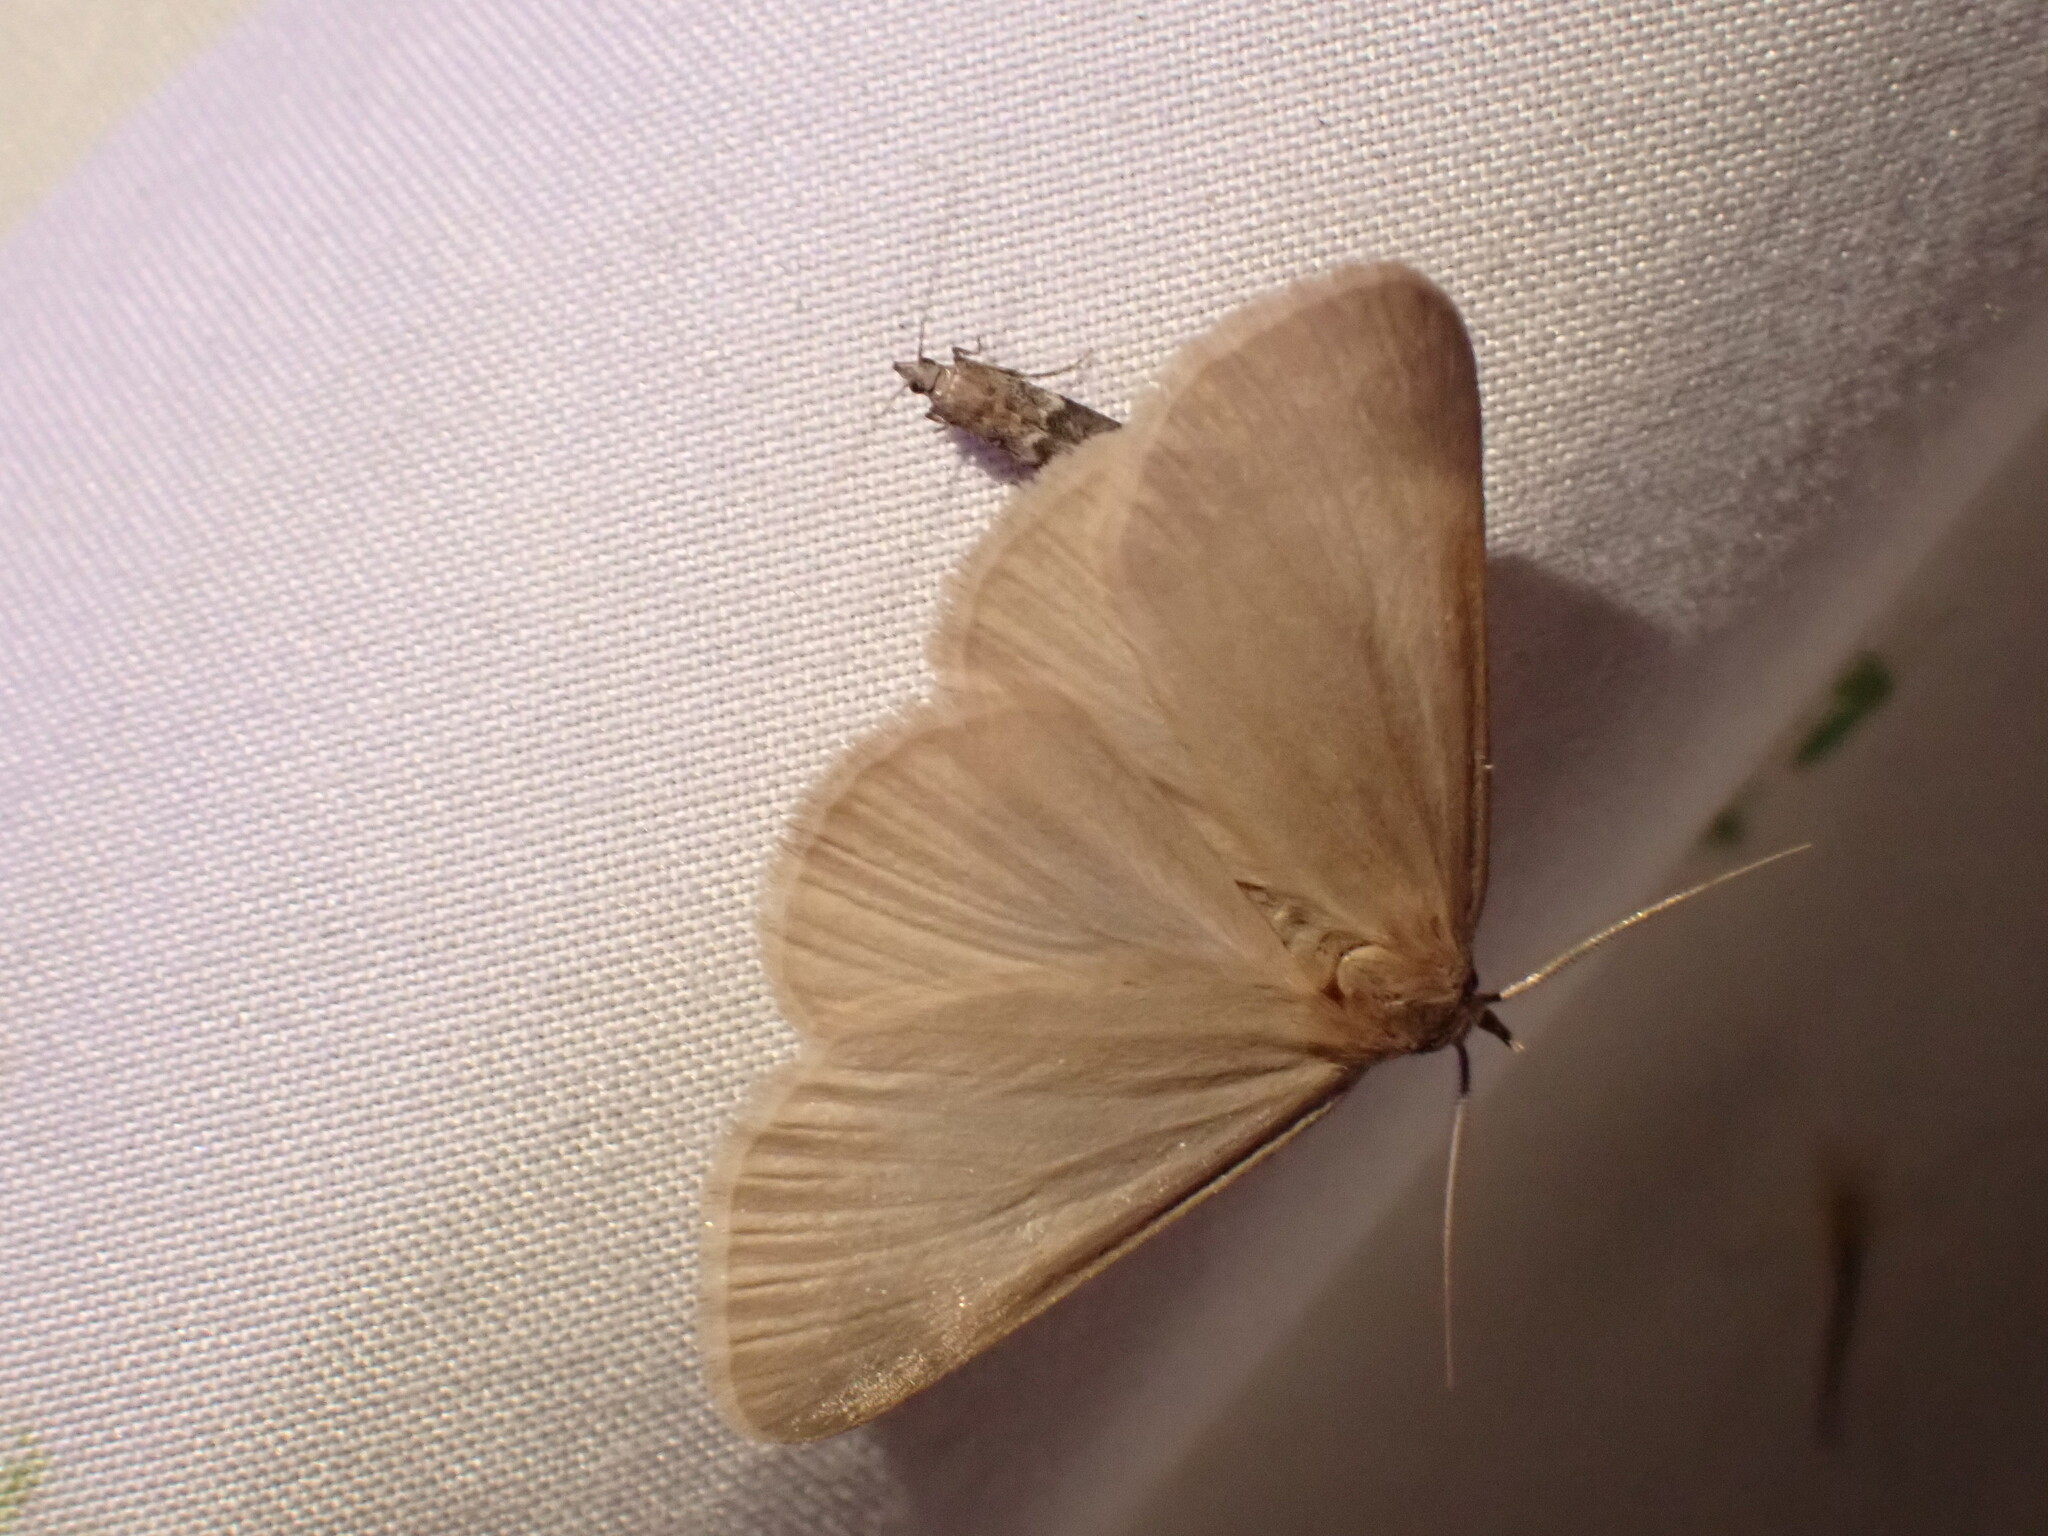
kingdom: Animalia
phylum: Arthropoda
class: Insecta
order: Lepidoptera
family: Erebidae
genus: Idia
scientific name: Idia immaculalis
